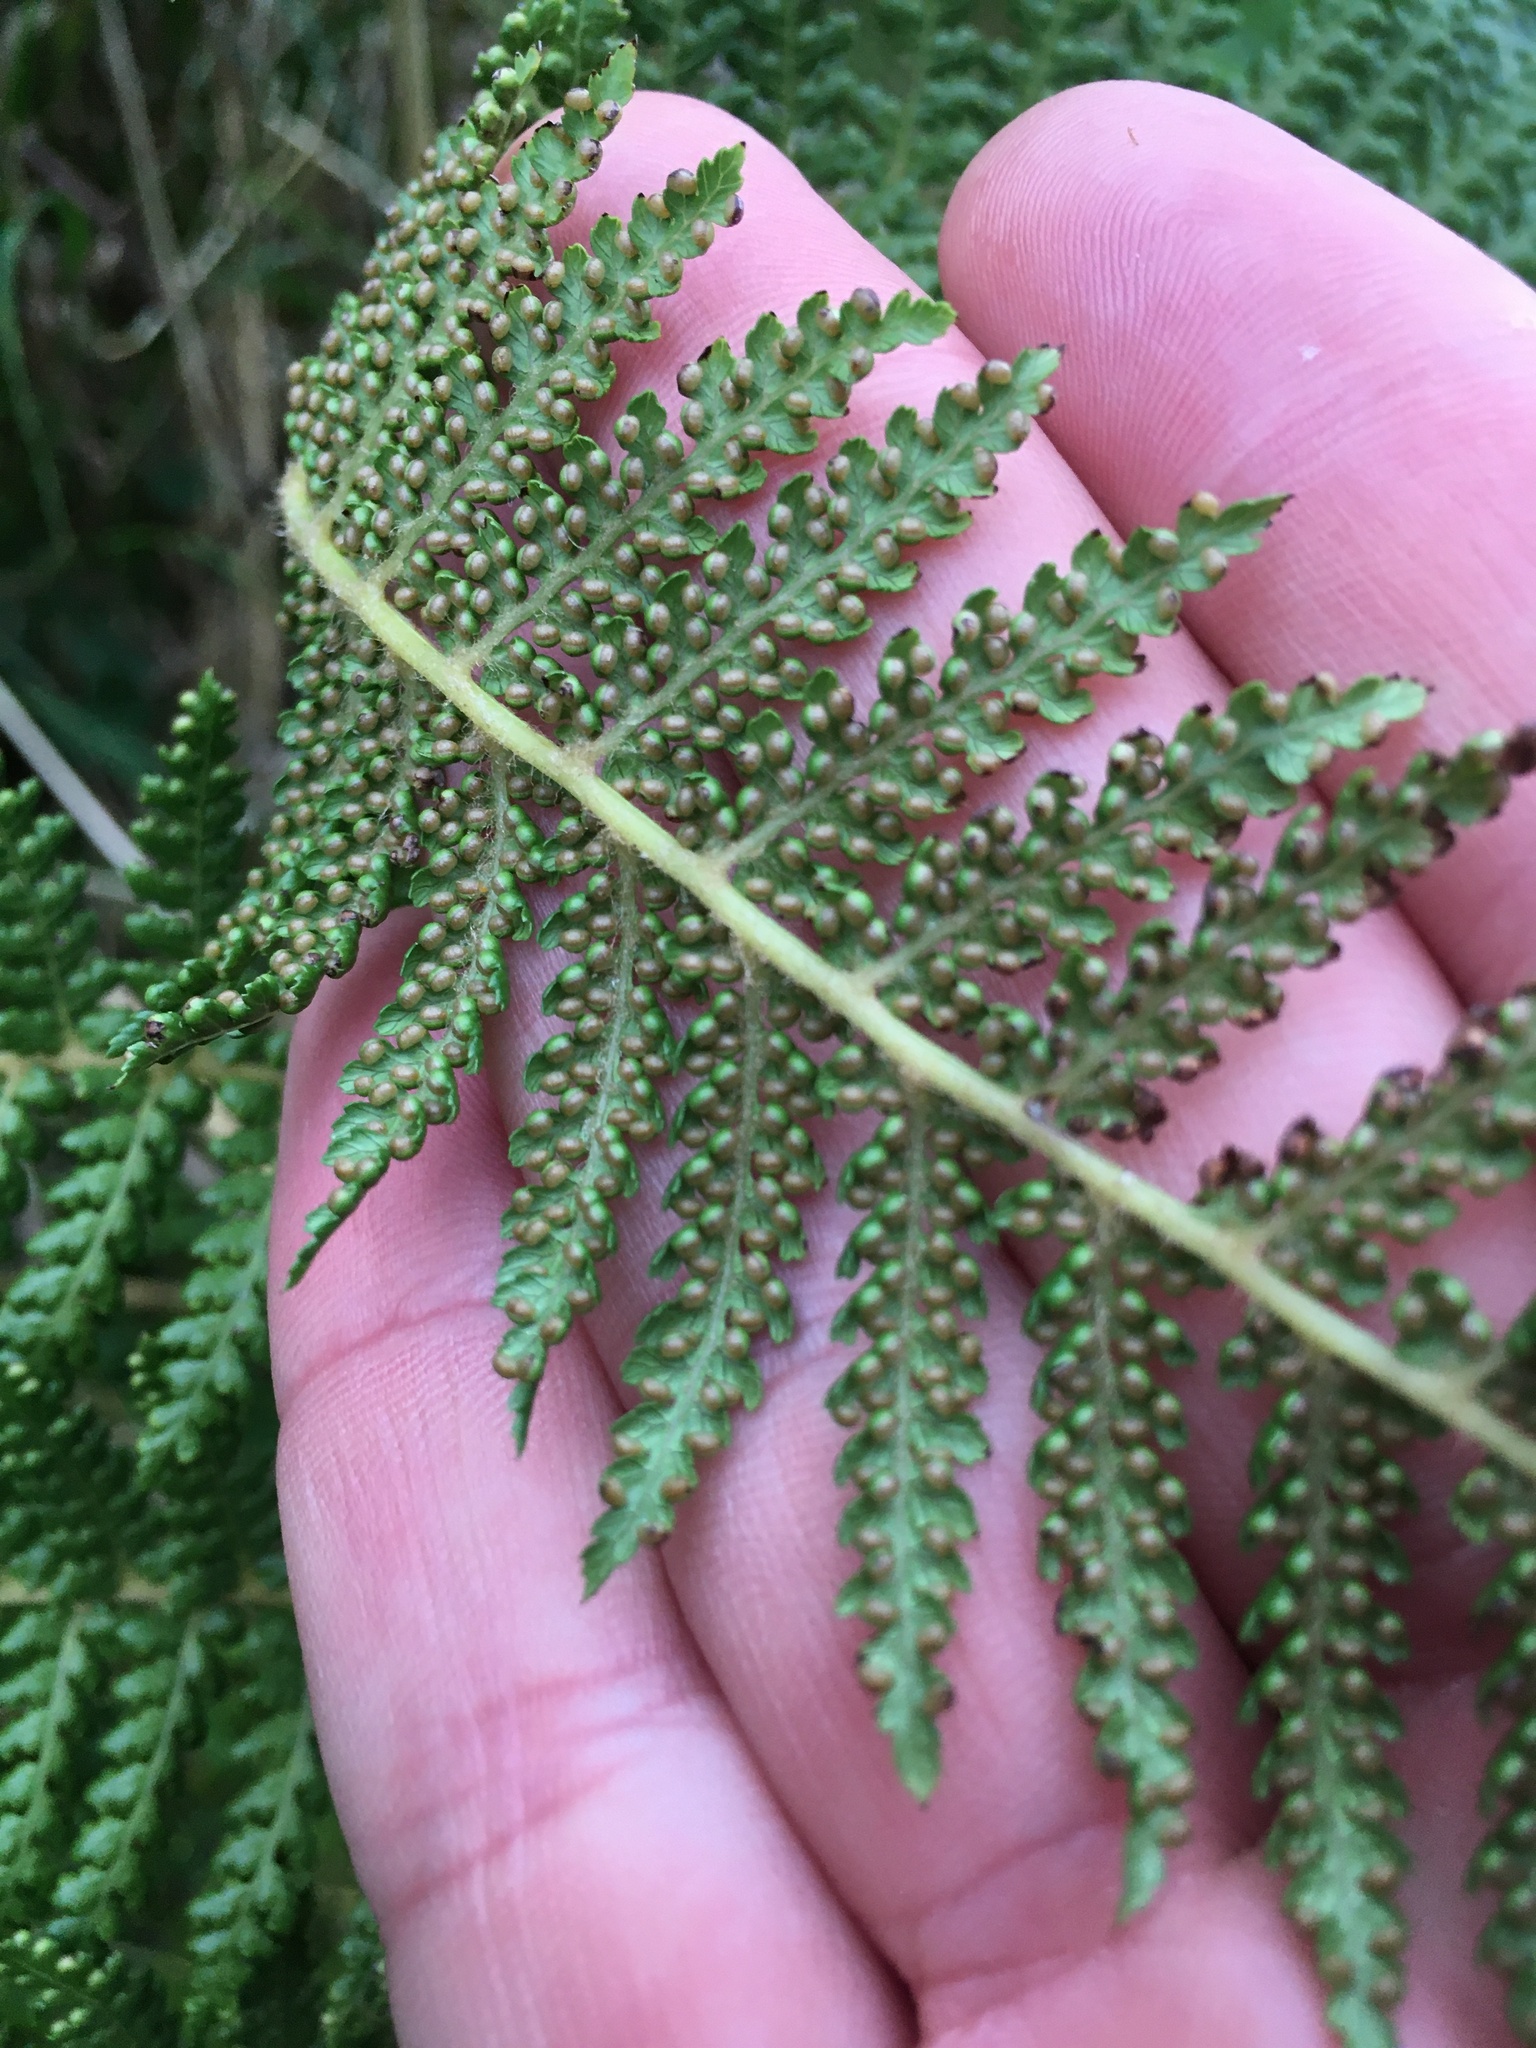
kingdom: Plantae
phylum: Tracheophyta
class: Polypodiopsida
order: Cyatheales
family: Dicksoniaceae
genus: Dicksonia
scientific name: Dicksonia fibrosa
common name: Golden tree fern
